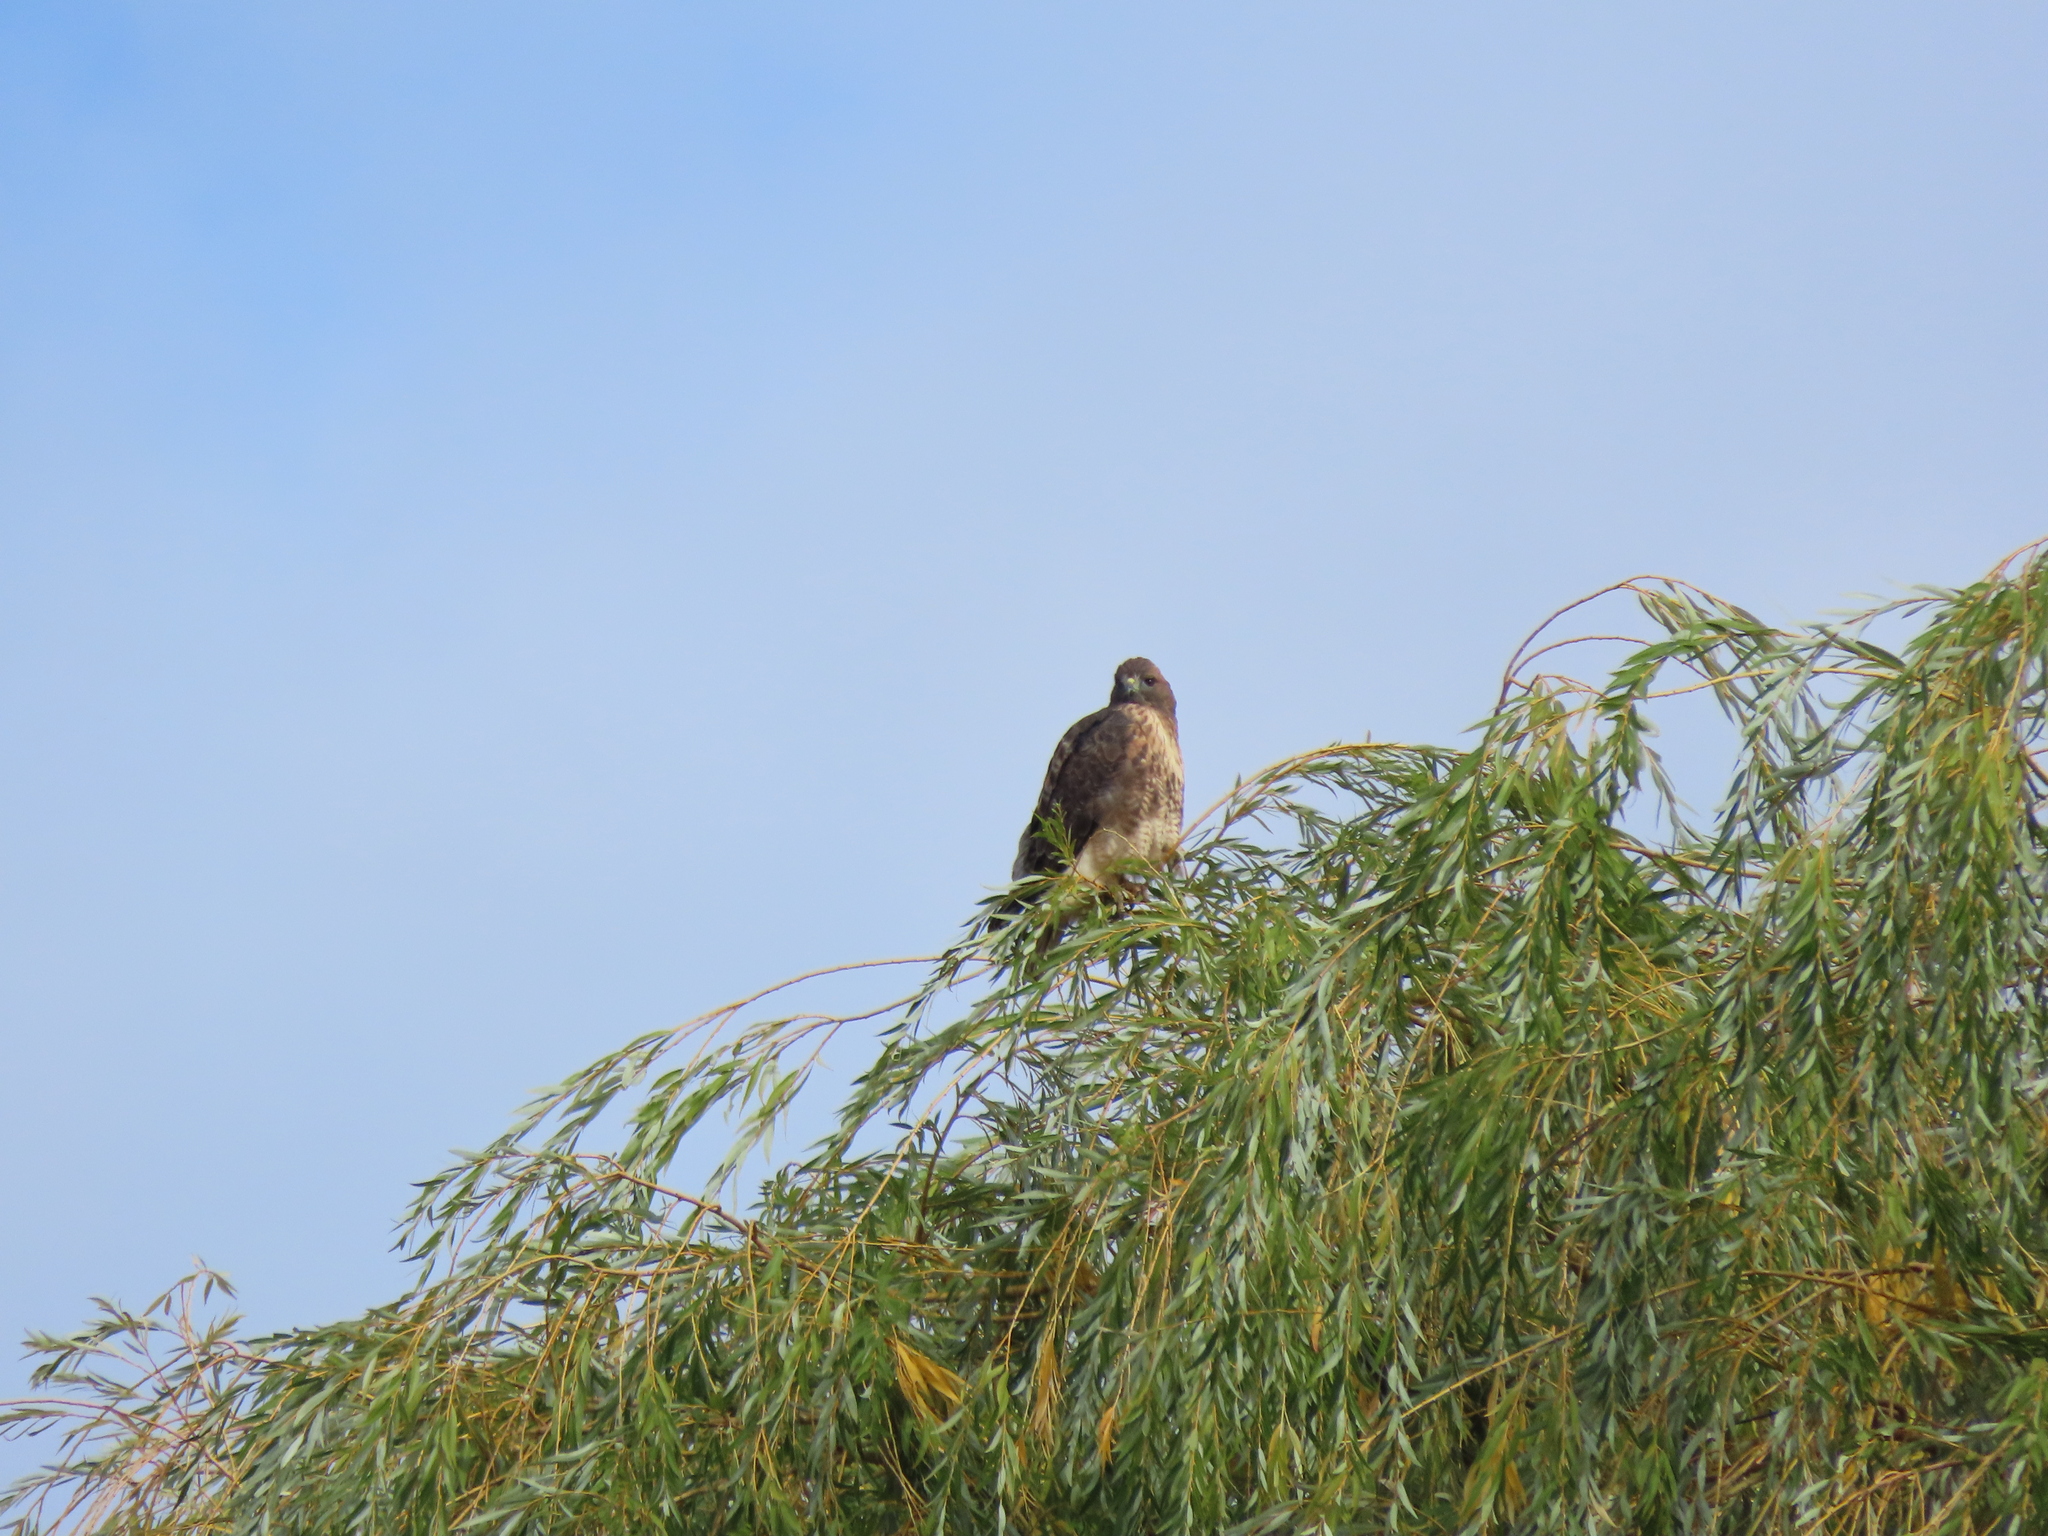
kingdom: Animalia
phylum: Chordata
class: Aves
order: Accipitriformes
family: Accipitridae
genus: Buteo
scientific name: Buteo jamaicensis
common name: Red-tailed hawk
